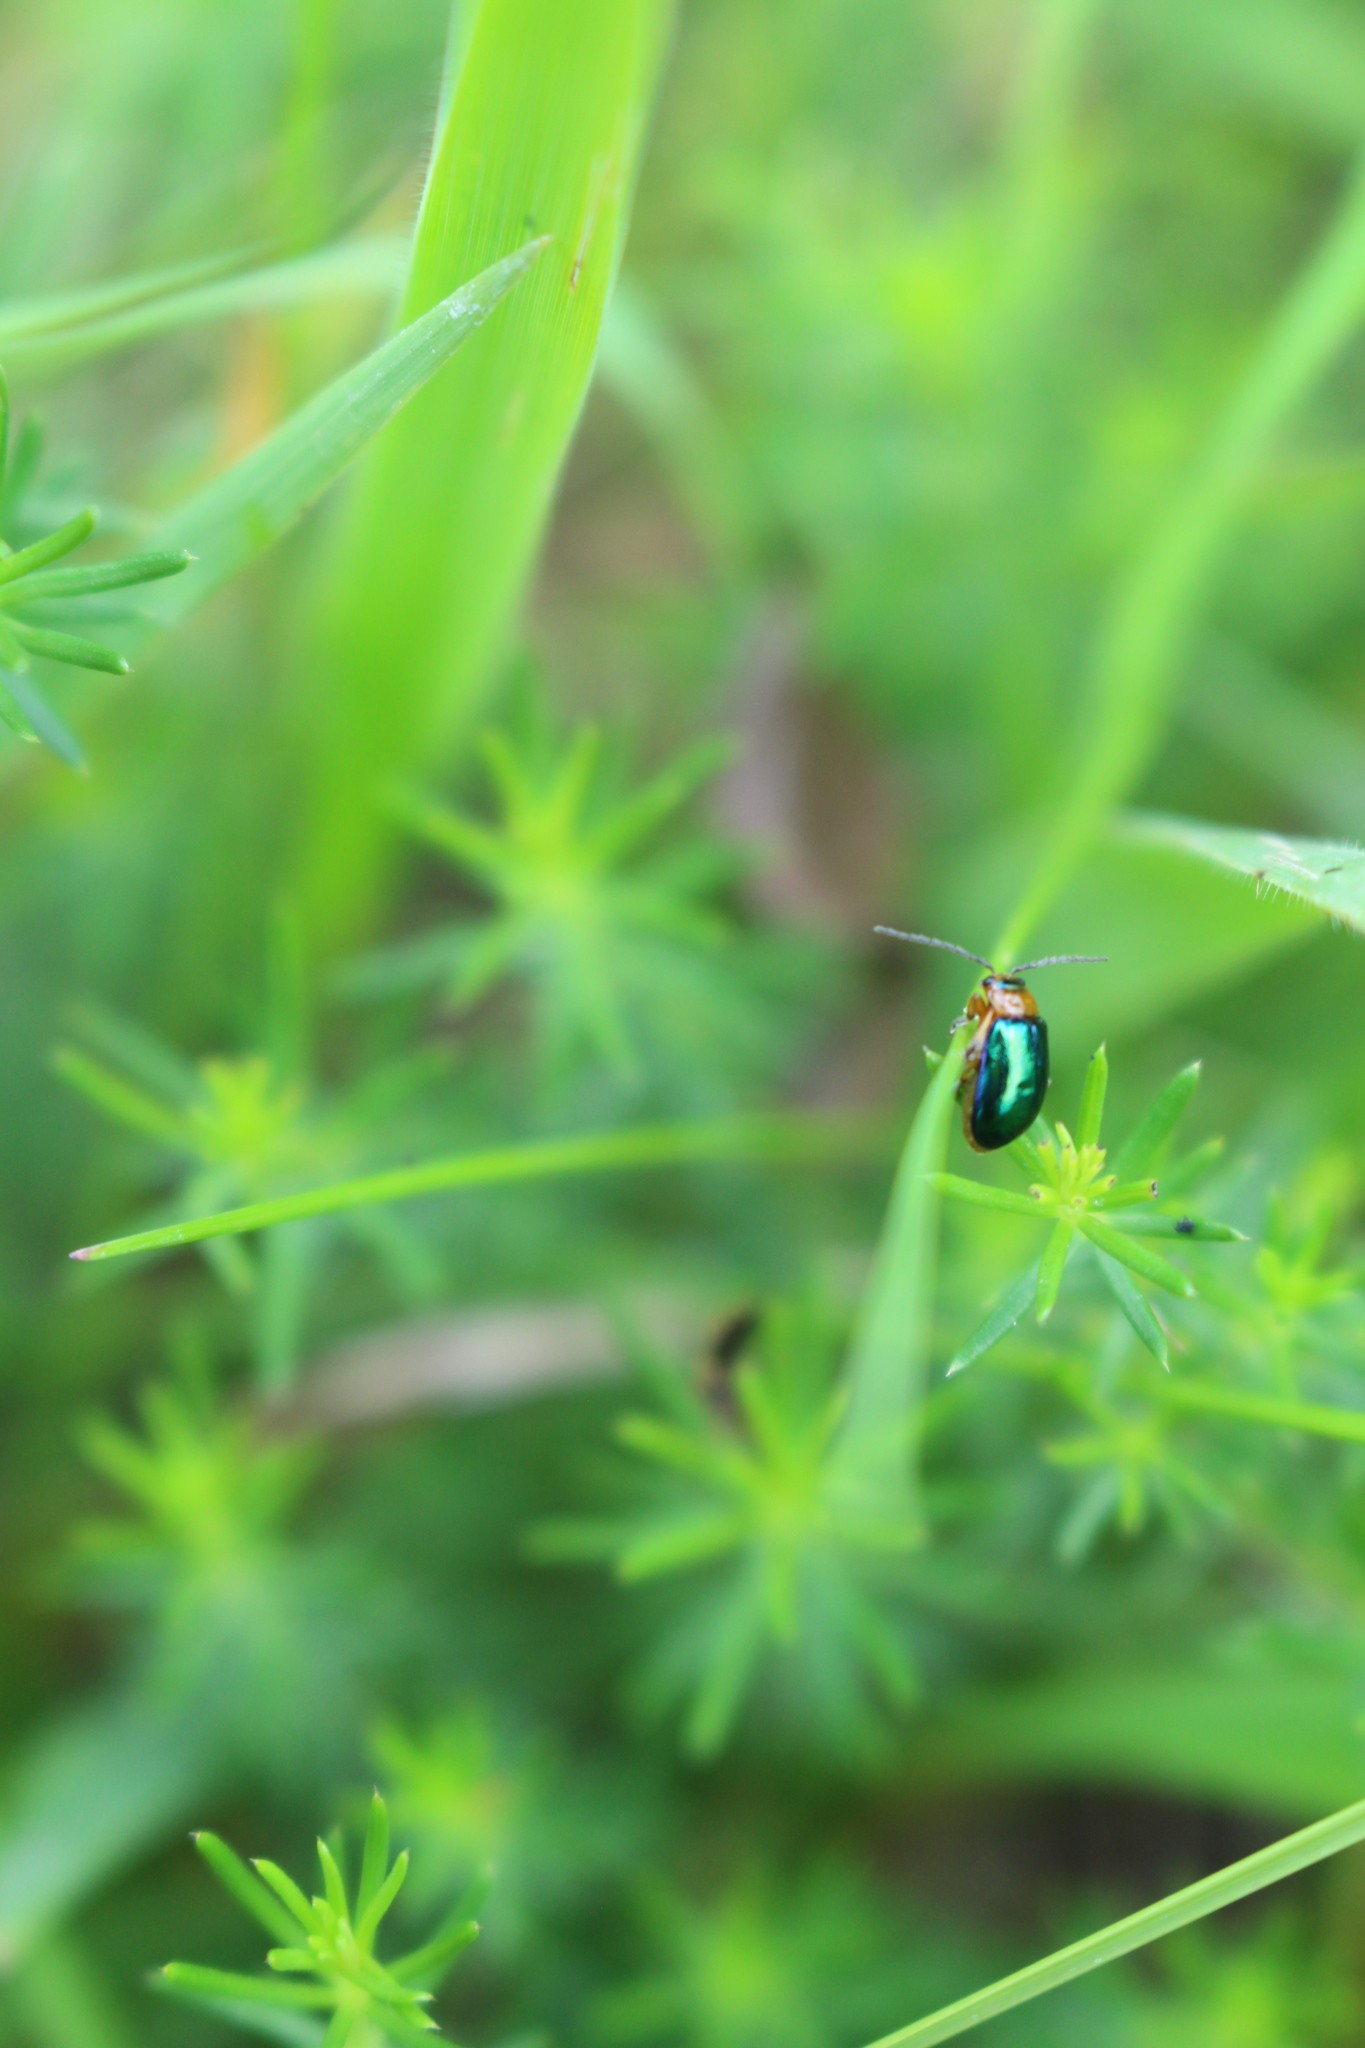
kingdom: Animalia
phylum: Arthropoda
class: Insecta
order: Coleoptera
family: Chrysomelidae
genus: Sermylassa
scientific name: Sermylassa halensis
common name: Leaf beetle
